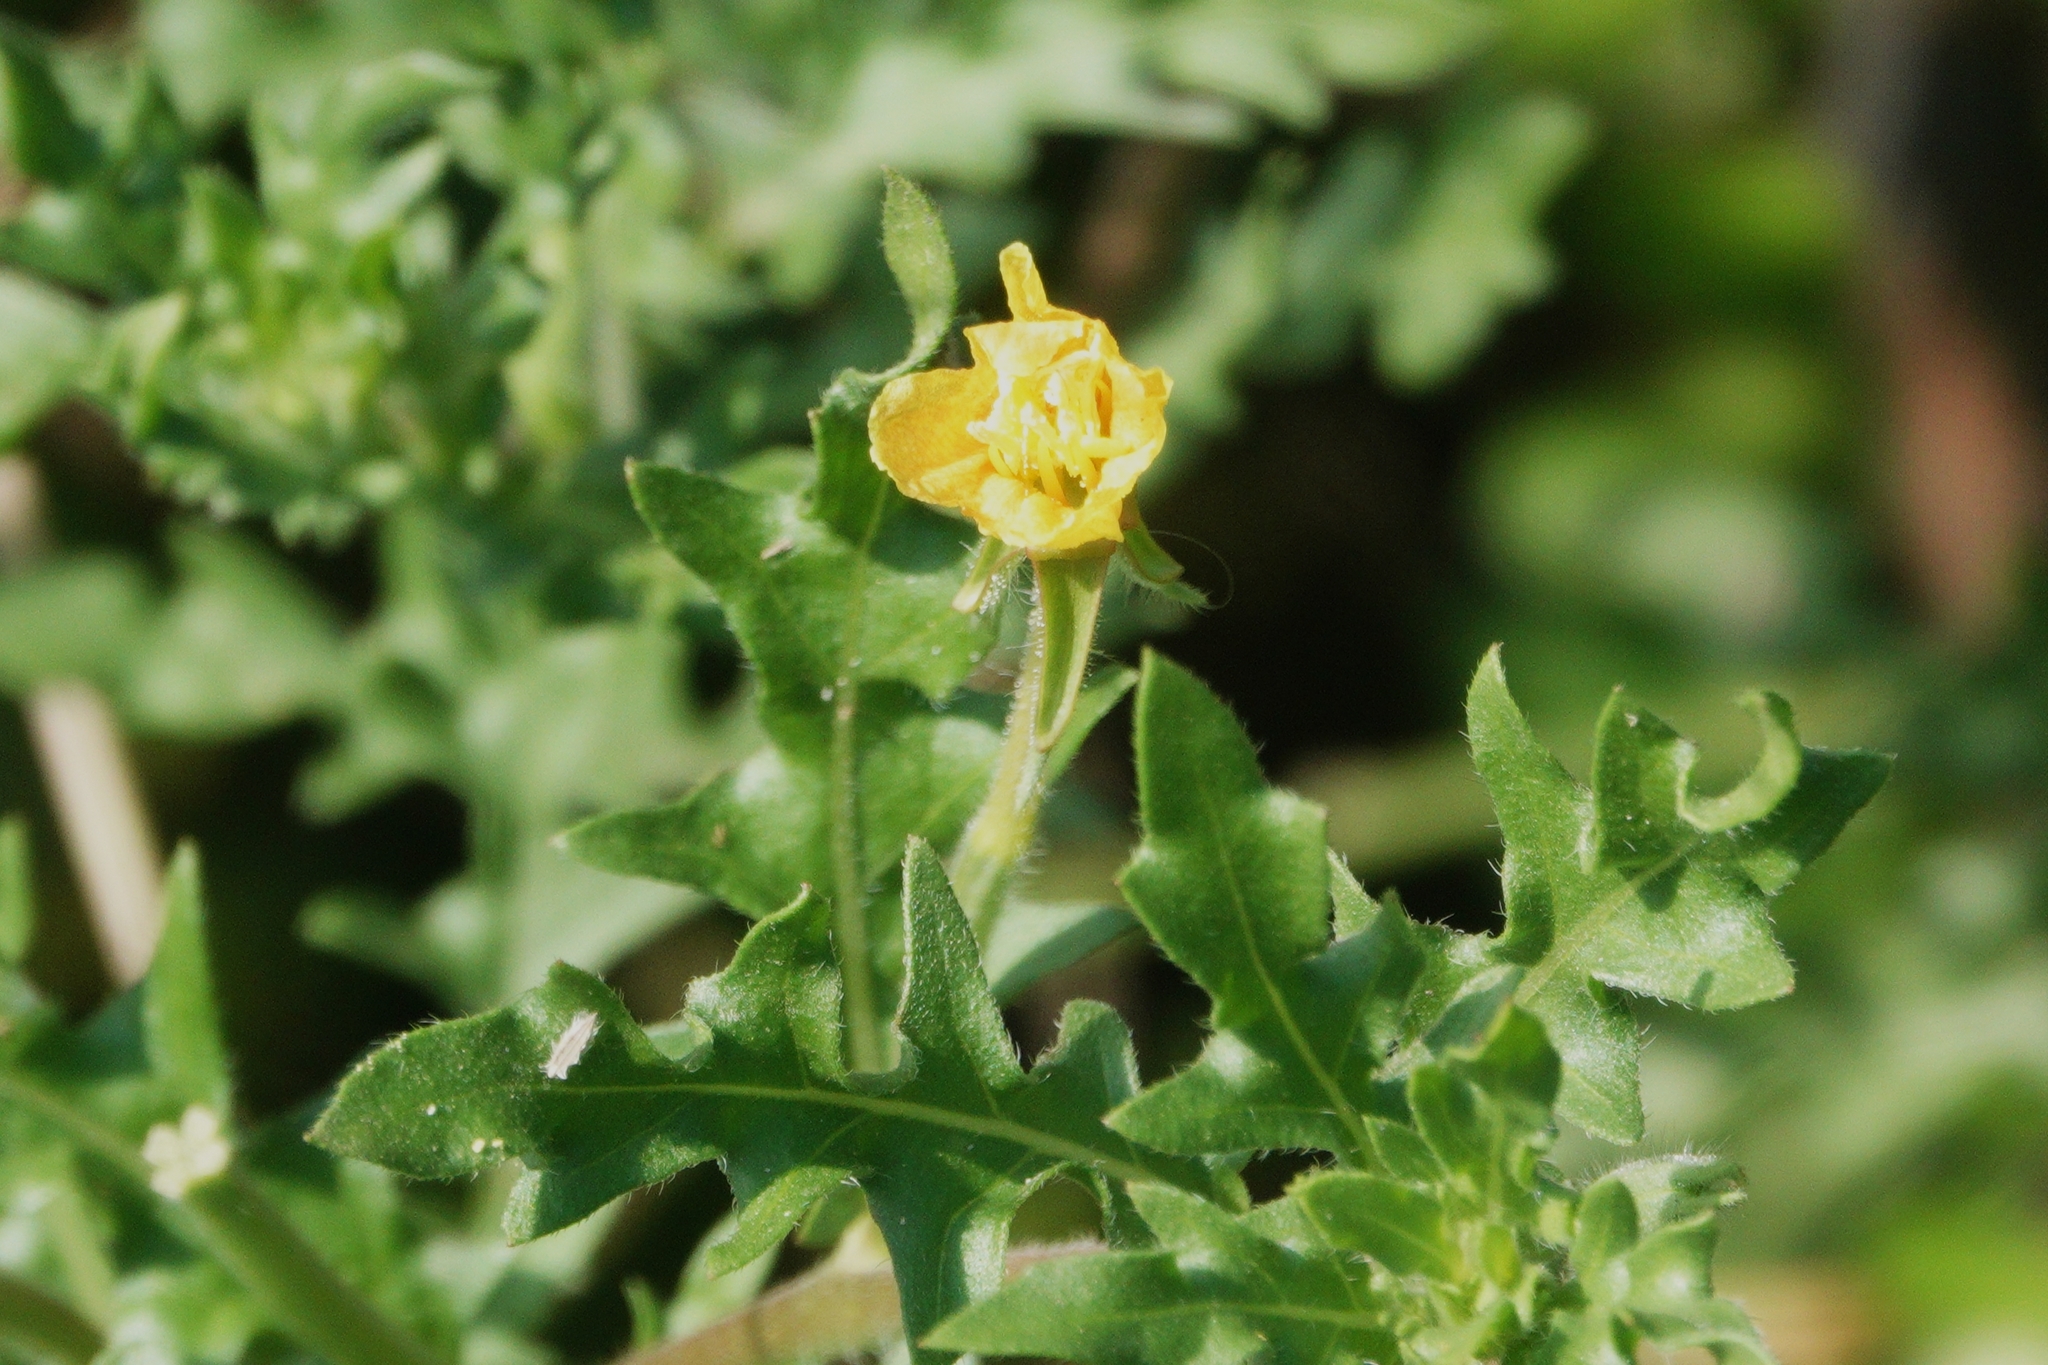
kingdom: Plantae
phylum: Tracheophyta
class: Magnoliopsida
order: Myrtales
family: Onagraceae
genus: Oenothera
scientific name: Oenothera laciniata
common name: Cut-leaved evening-primrose
